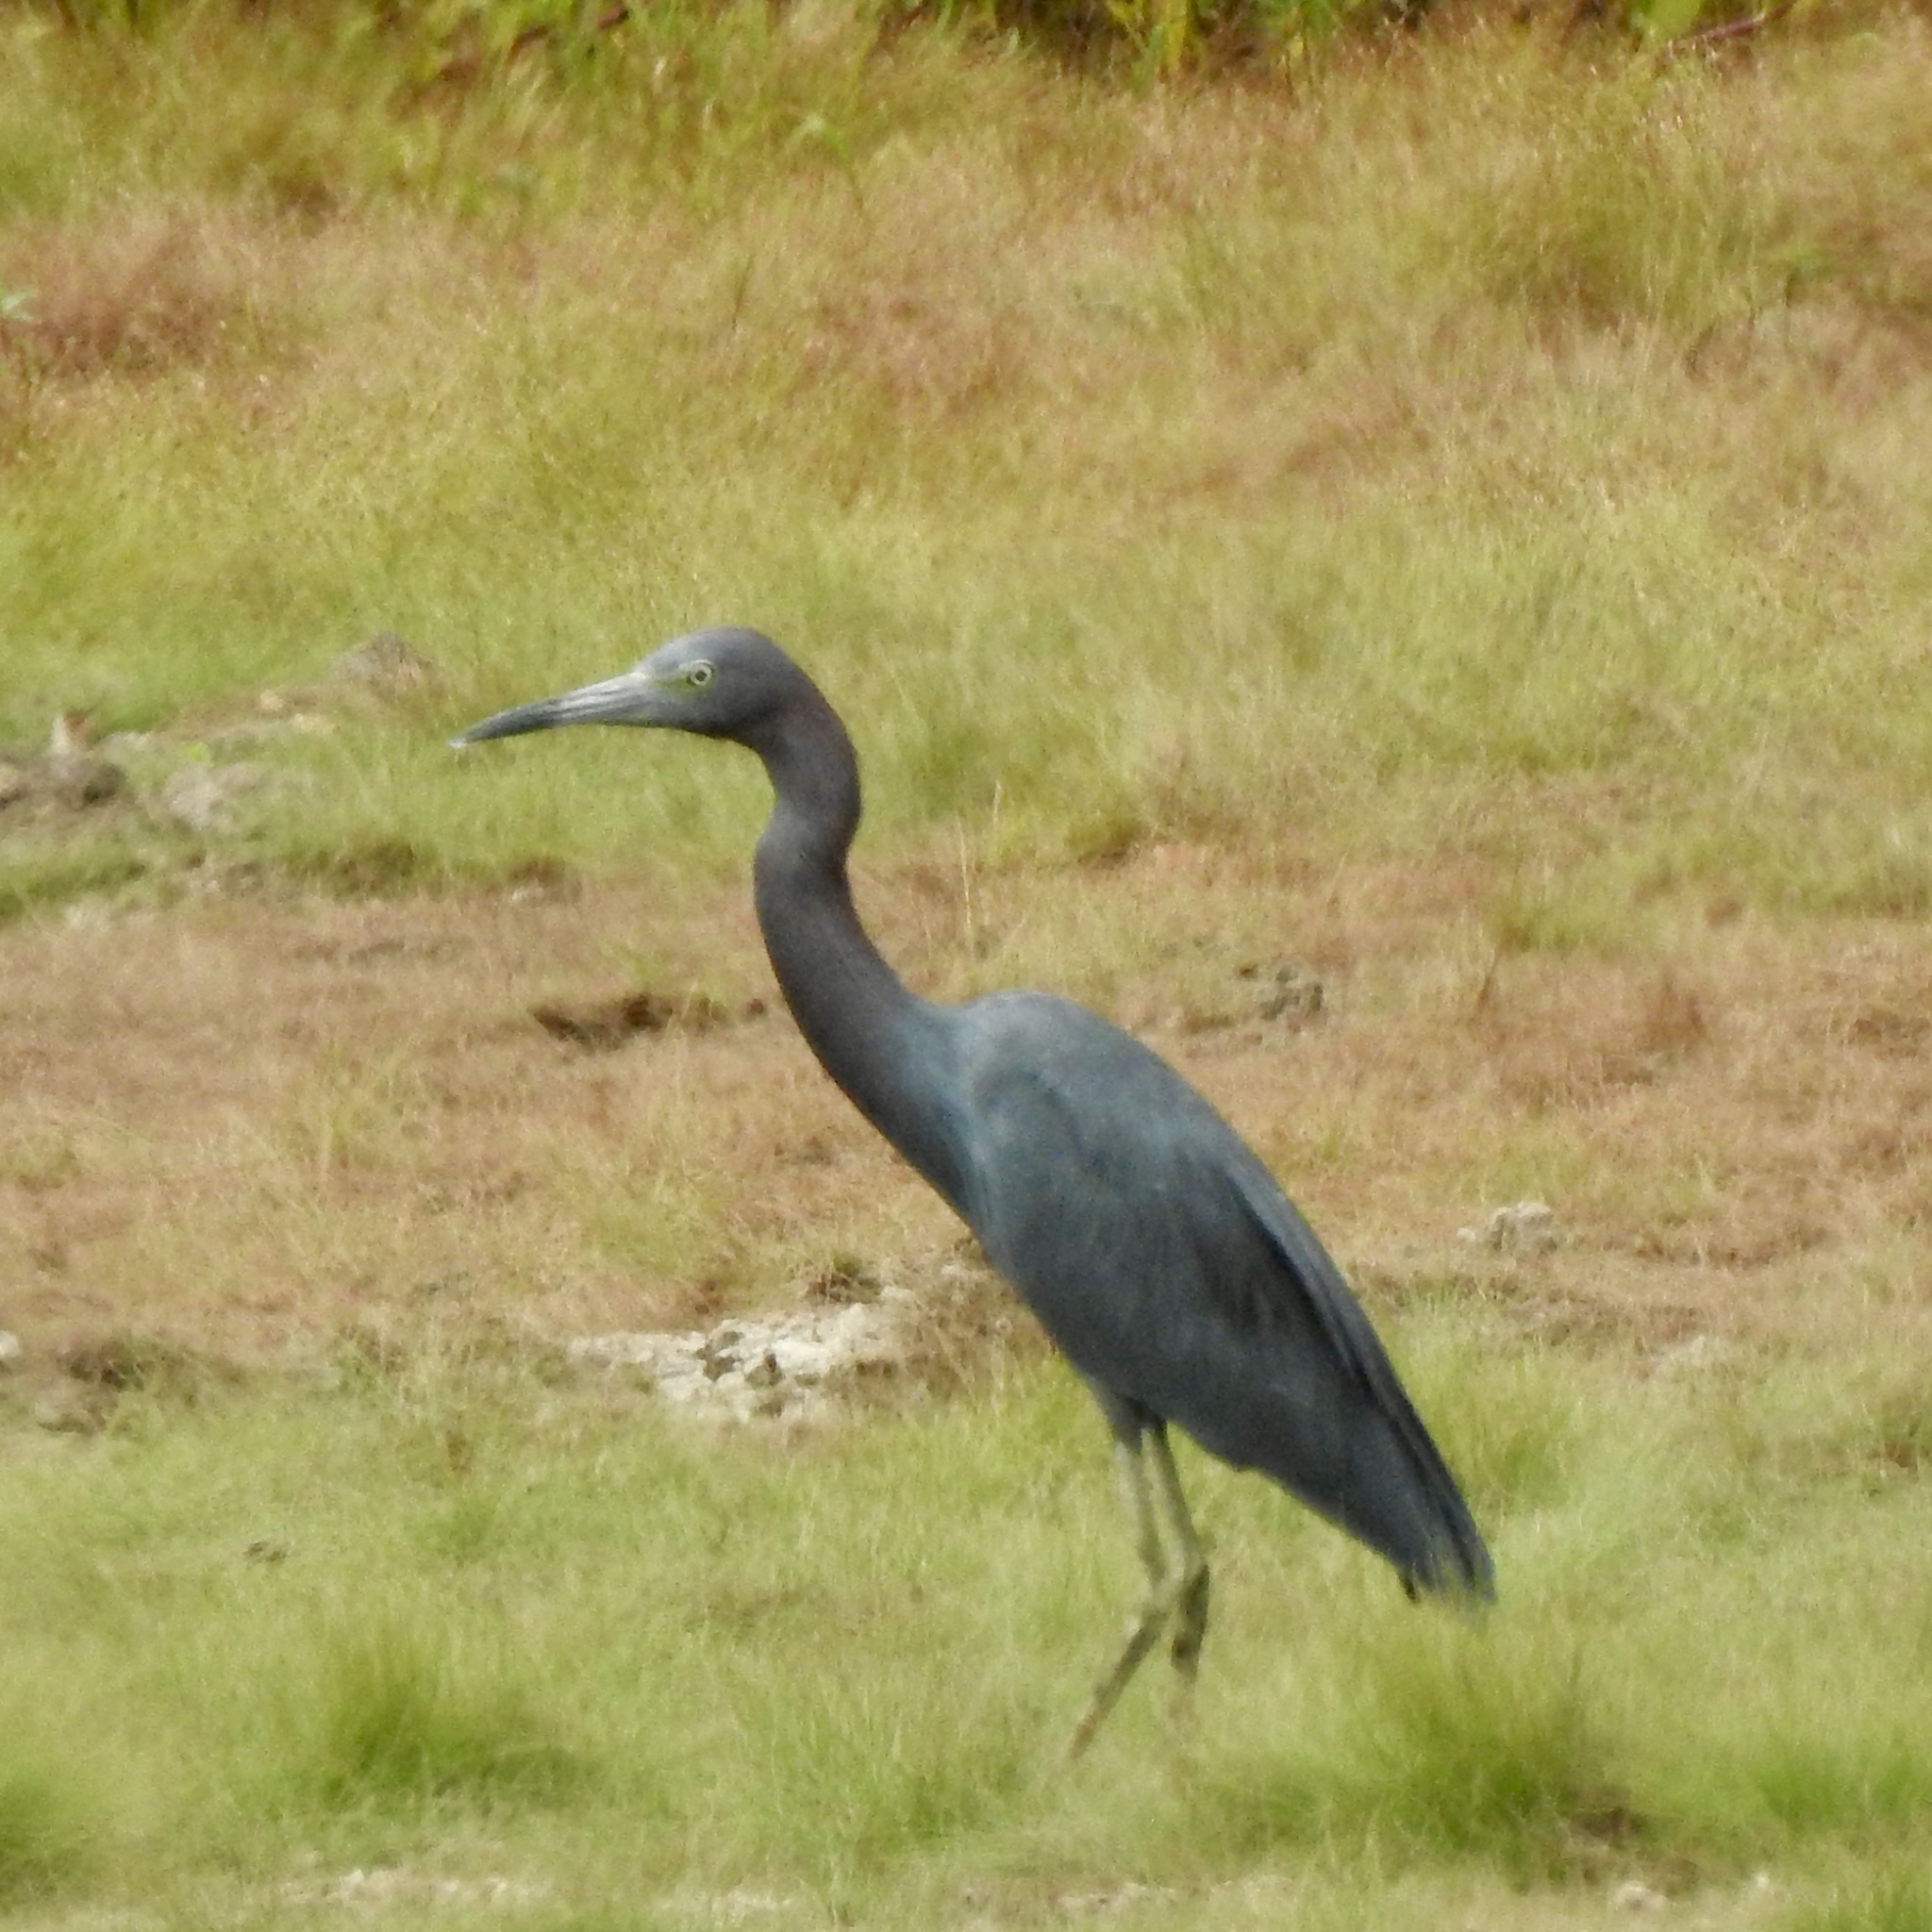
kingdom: Animalia
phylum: Chordata
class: Aves
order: Pelecaniformes
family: Ardeidae
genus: Egretta
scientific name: Egretta caerulea
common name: Little blue heron
